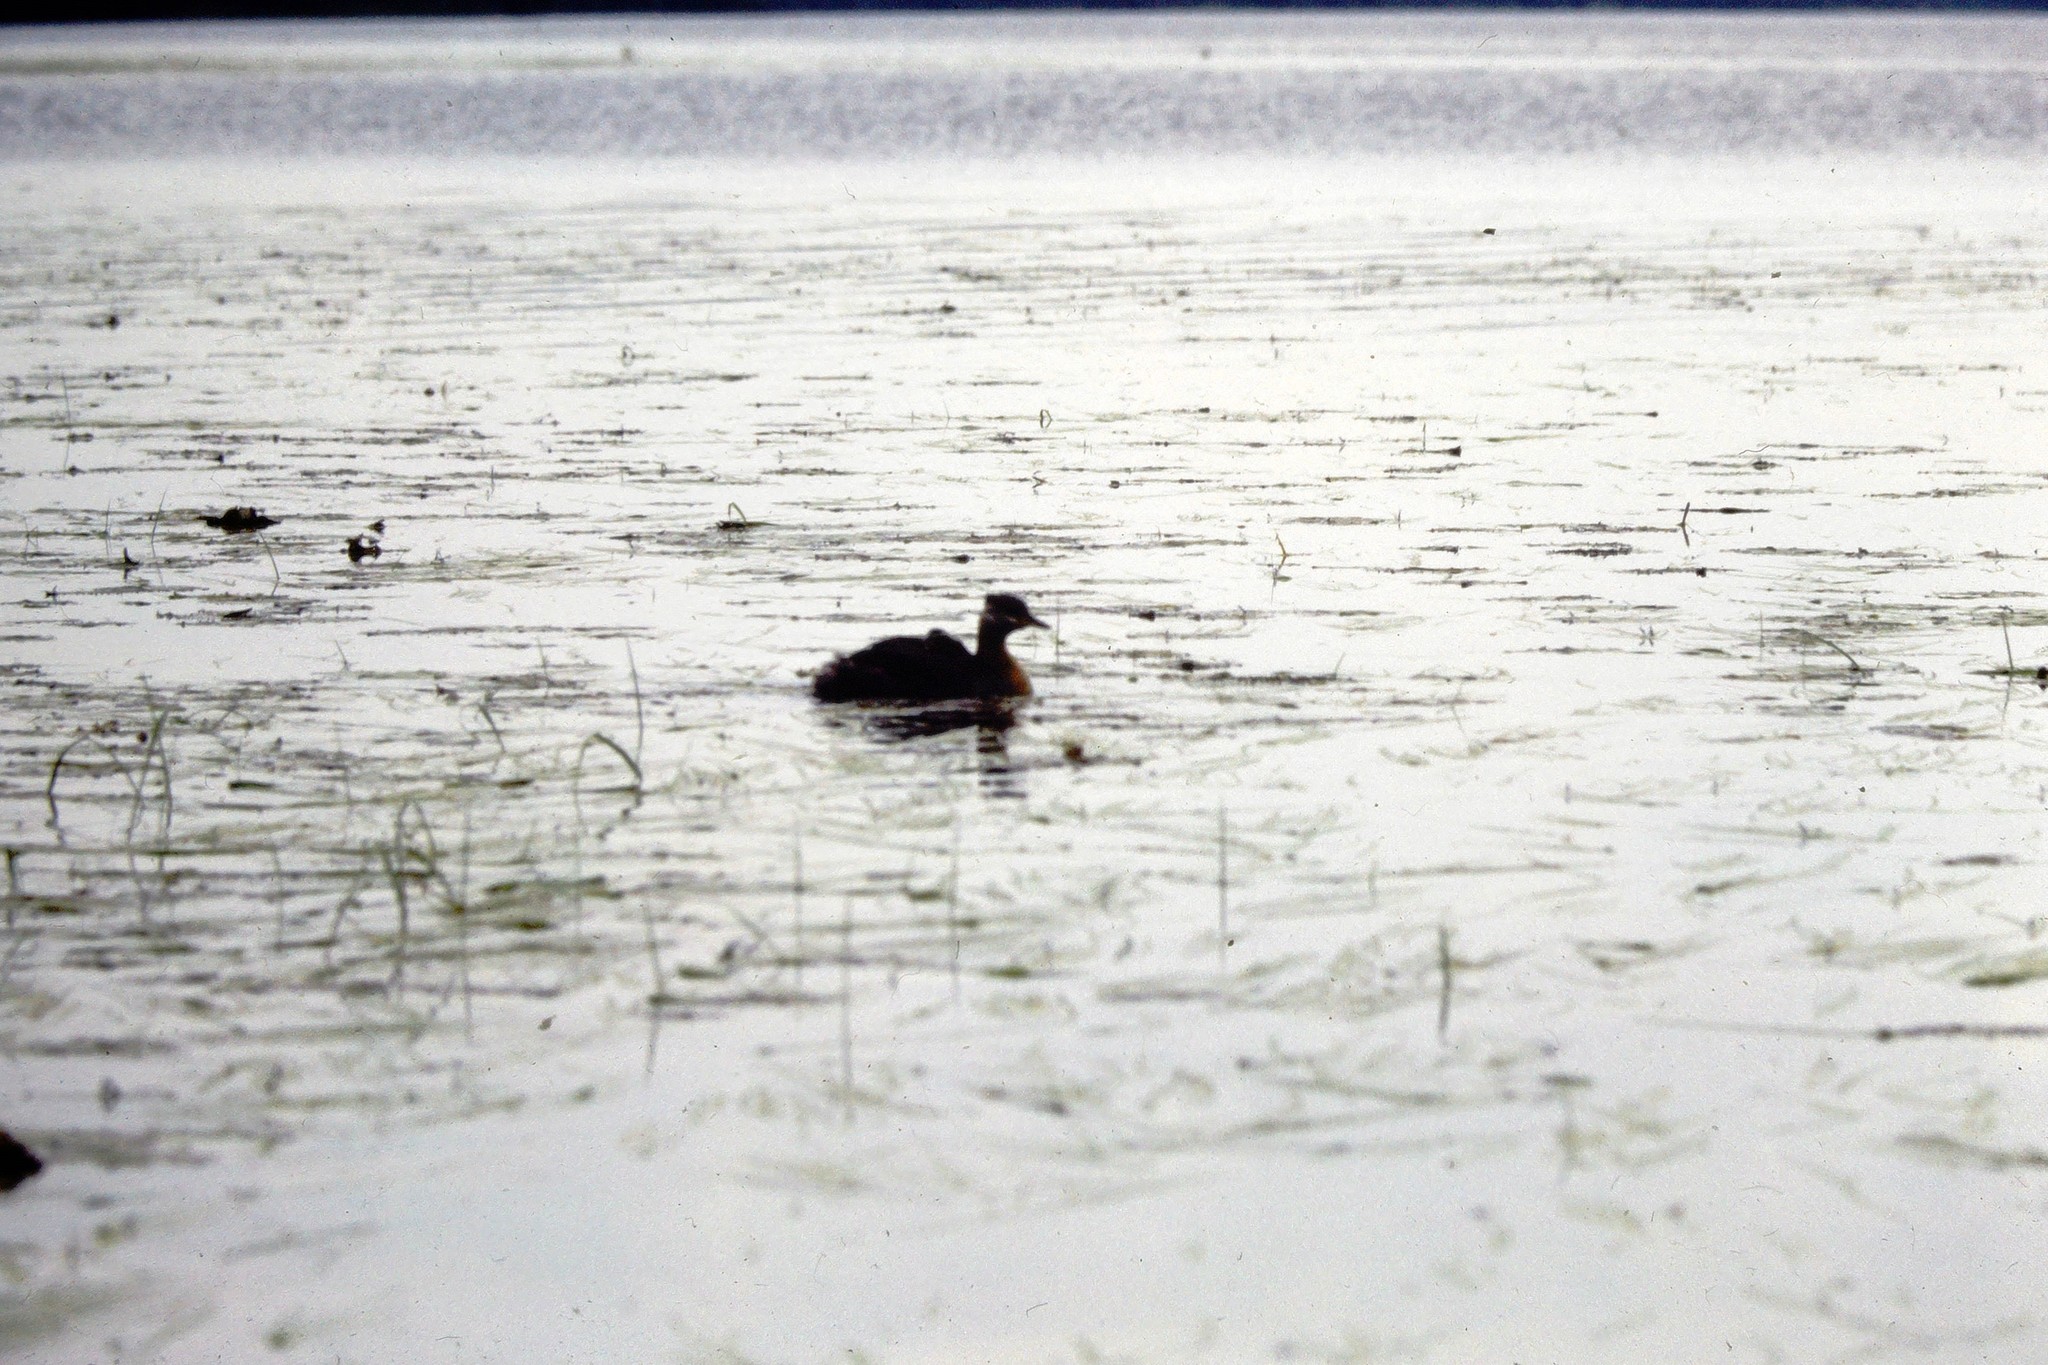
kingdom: Animalia
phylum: Chordata
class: Aves
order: Podicipediformes
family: Podicipedidae
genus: Podiceps
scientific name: Podiceps grisegena
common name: Red-necked grebe
